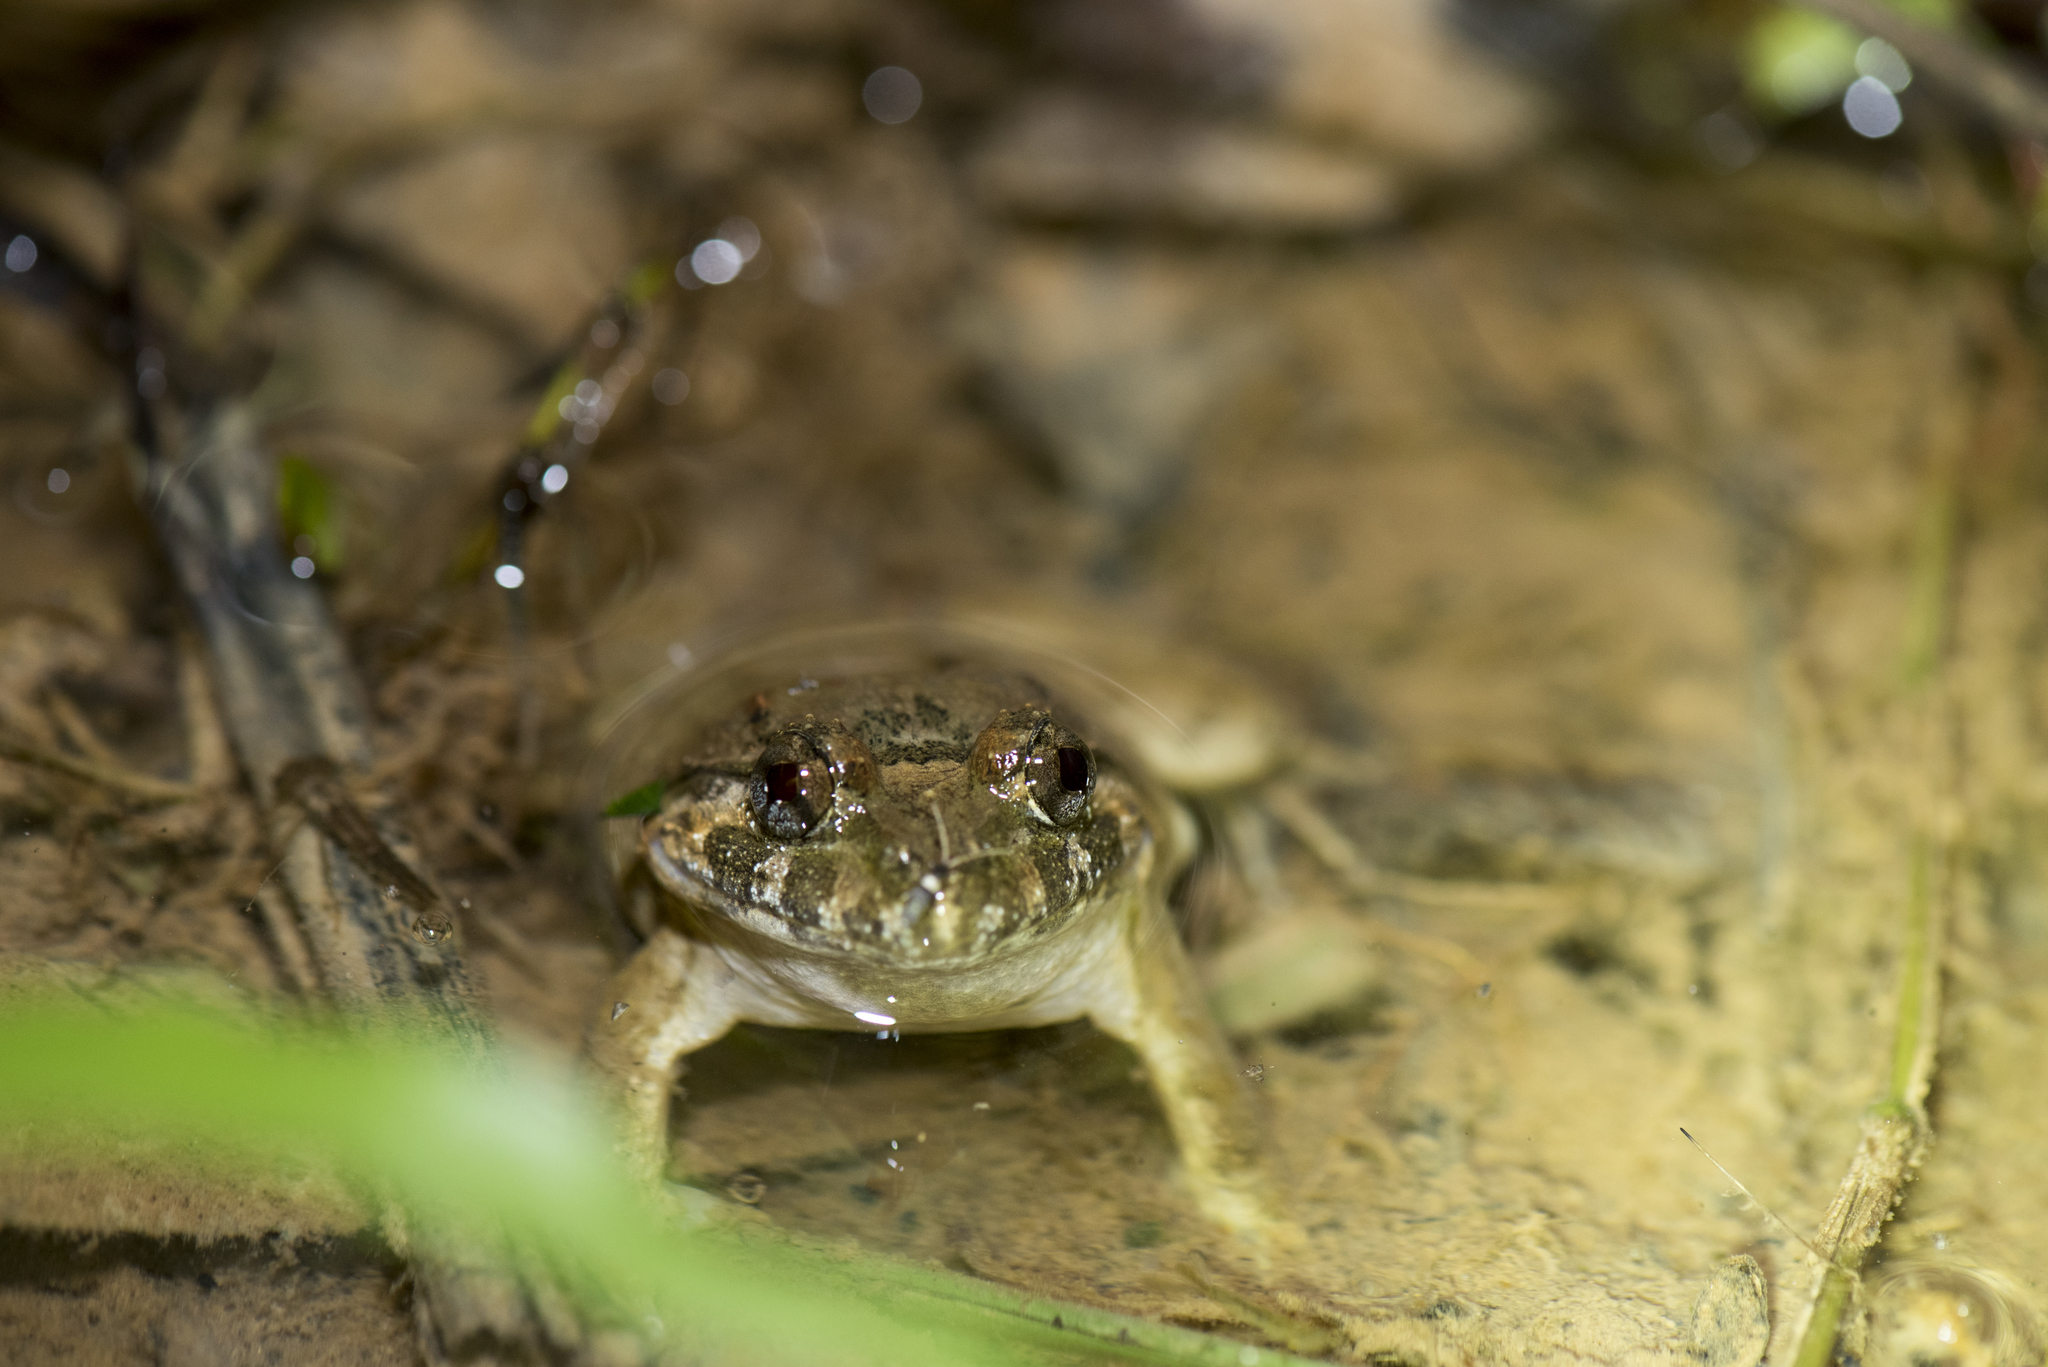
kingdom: Animalia
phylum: Chordata
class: Amphibia
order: Anura
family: Dicroglossidae
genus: Limnonectes
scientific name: Limnonectes fujianensis
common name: Fujian large-headed frog
